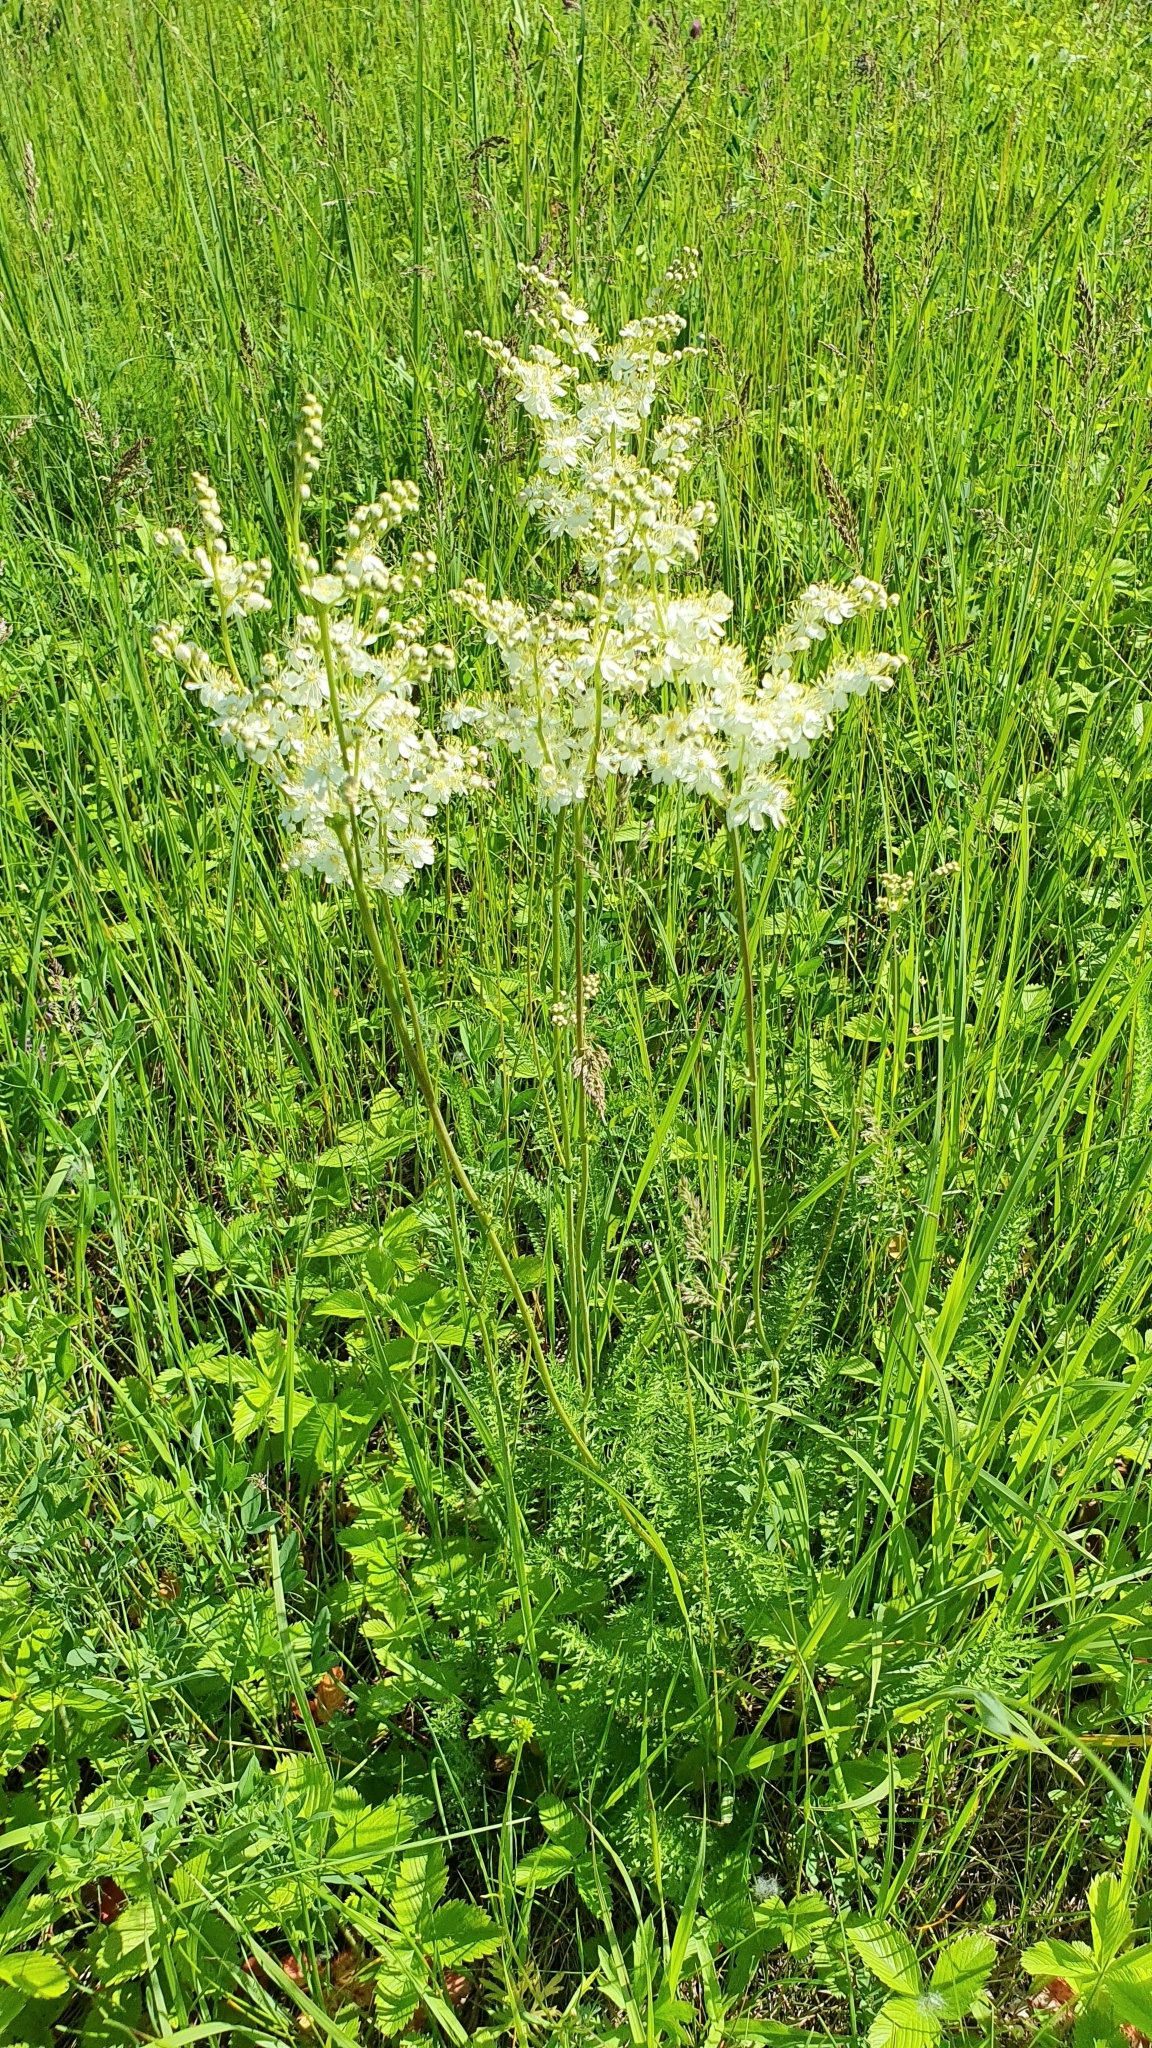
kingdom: Plantae
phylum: Tracheophyta
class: Magnoliopsida
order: Rosales
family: Rosaceae
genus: Filipendula
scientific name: Filipendula vulgaris
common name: Dropwort
